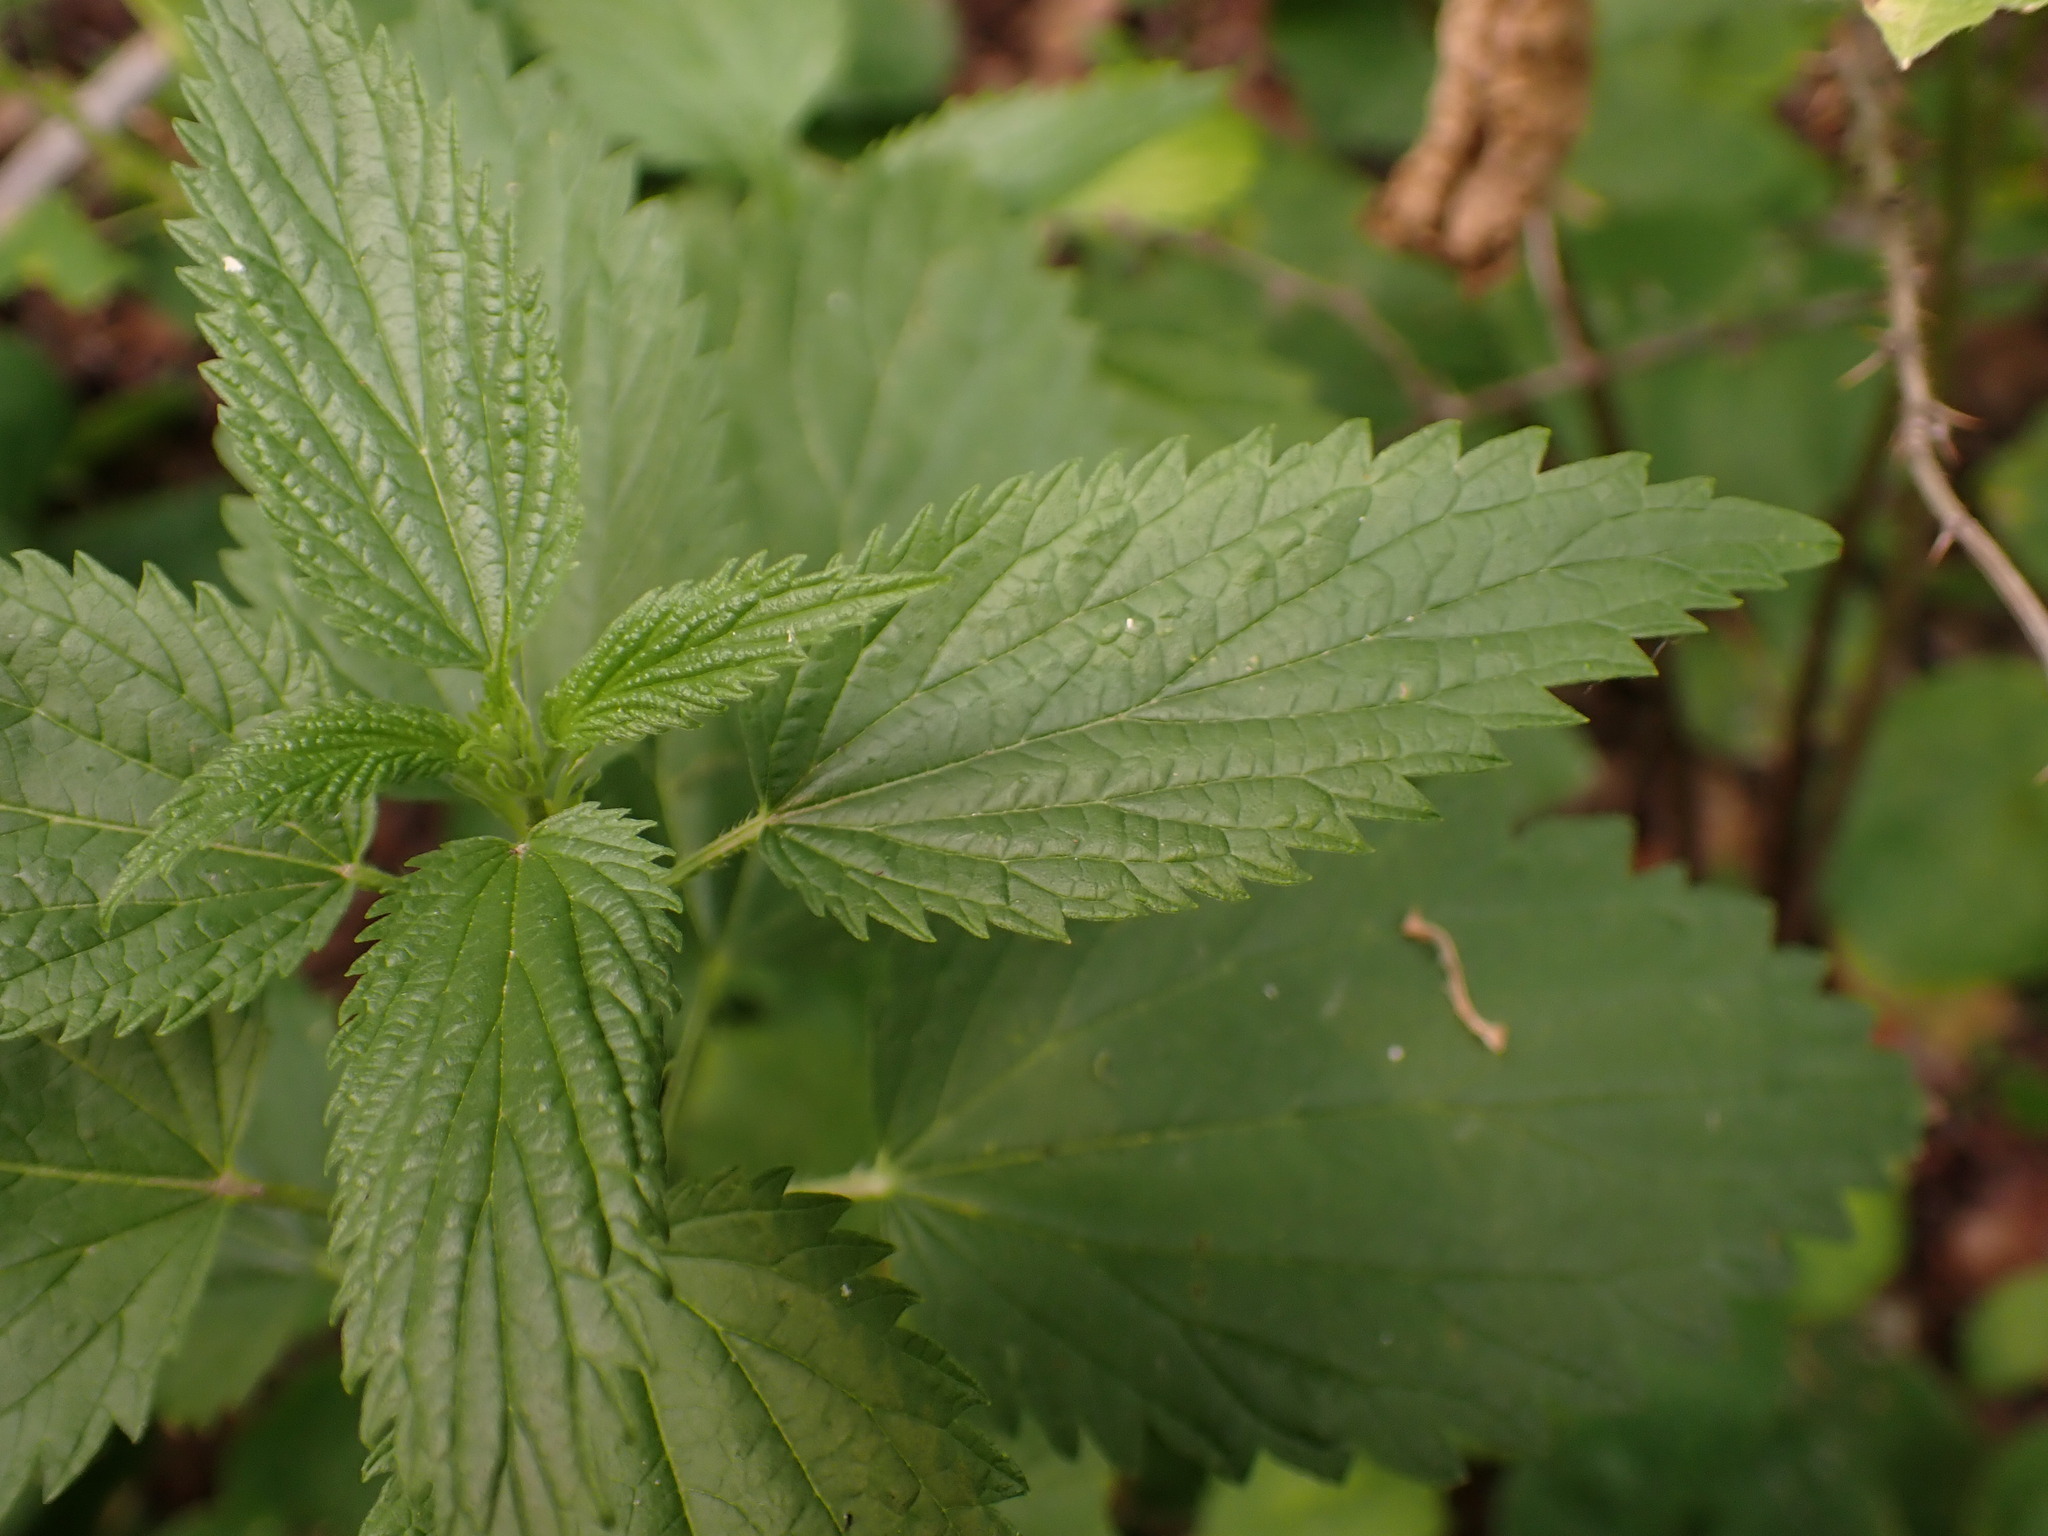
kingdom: Plantae
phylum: Tracheophyta
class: Magnoliopsida
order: Rosales
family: Urticaceae
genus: Urtica
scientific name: Urtica gracilis
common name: Slender stinging nettle
